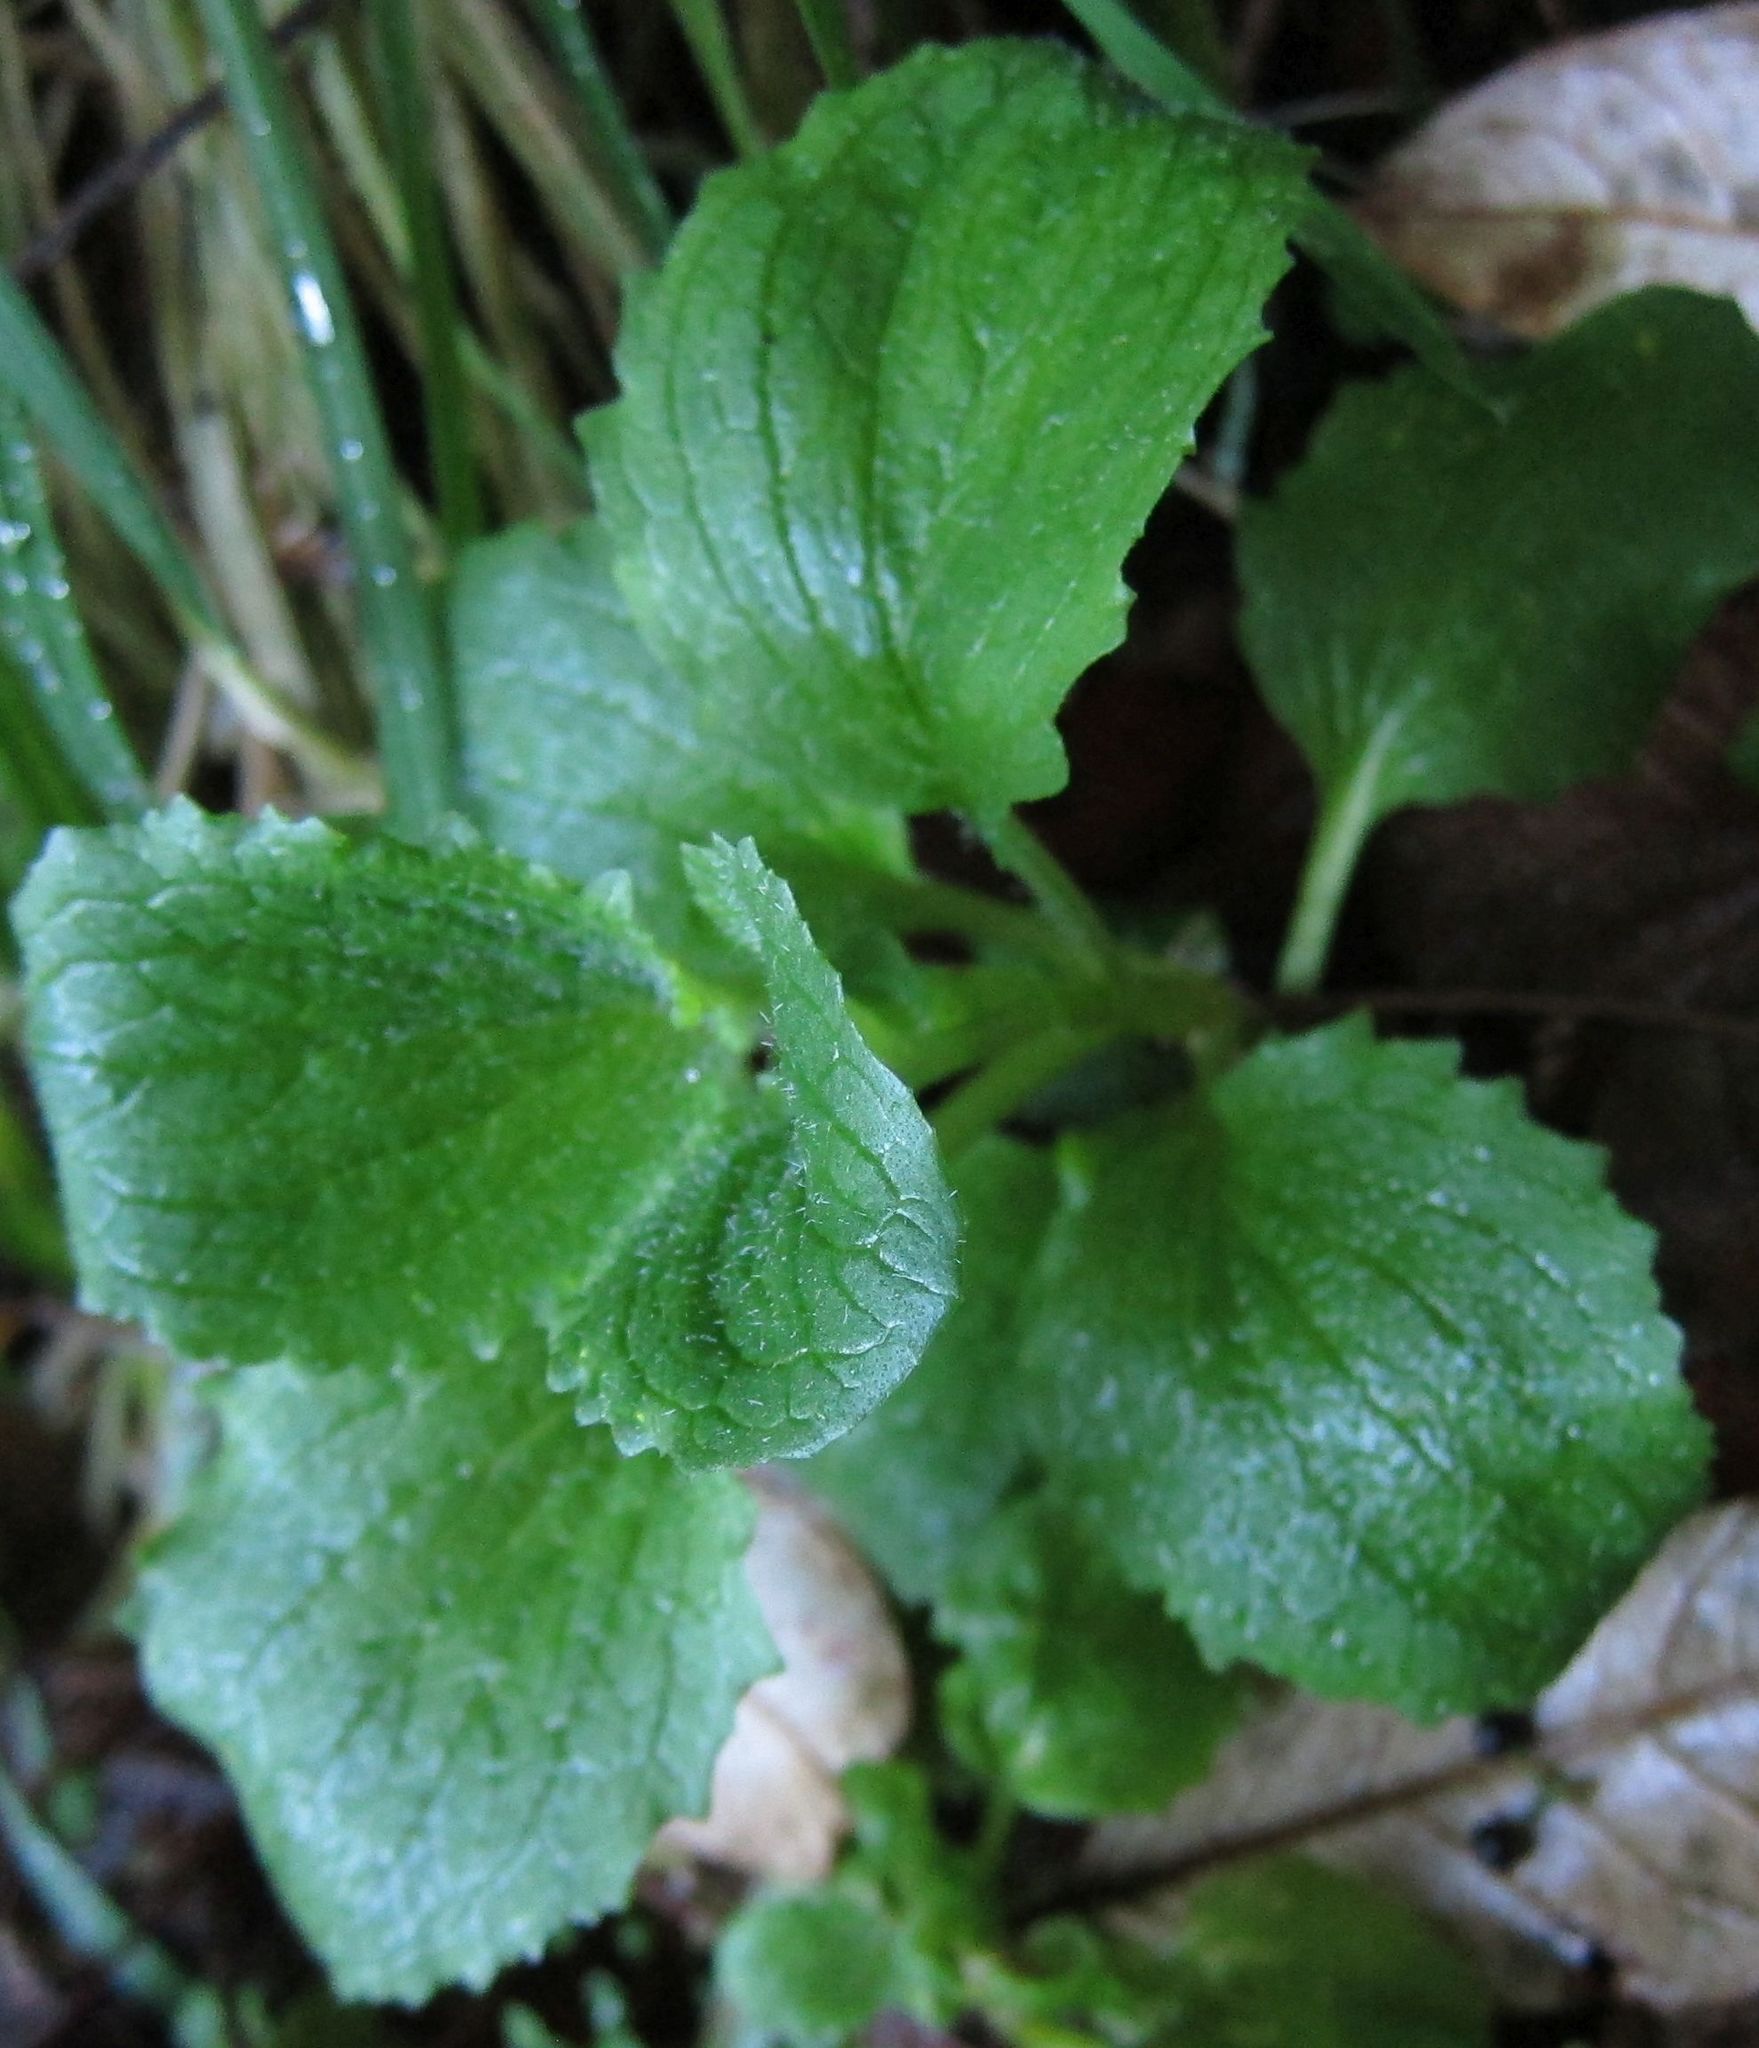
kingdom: Plantae
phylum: Tracheophyta
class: Magnoliopsida
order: Lamiales
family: Phrymaceae
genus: Erythranthe
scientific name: Erythranthe guttata
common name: Monkeyflower
